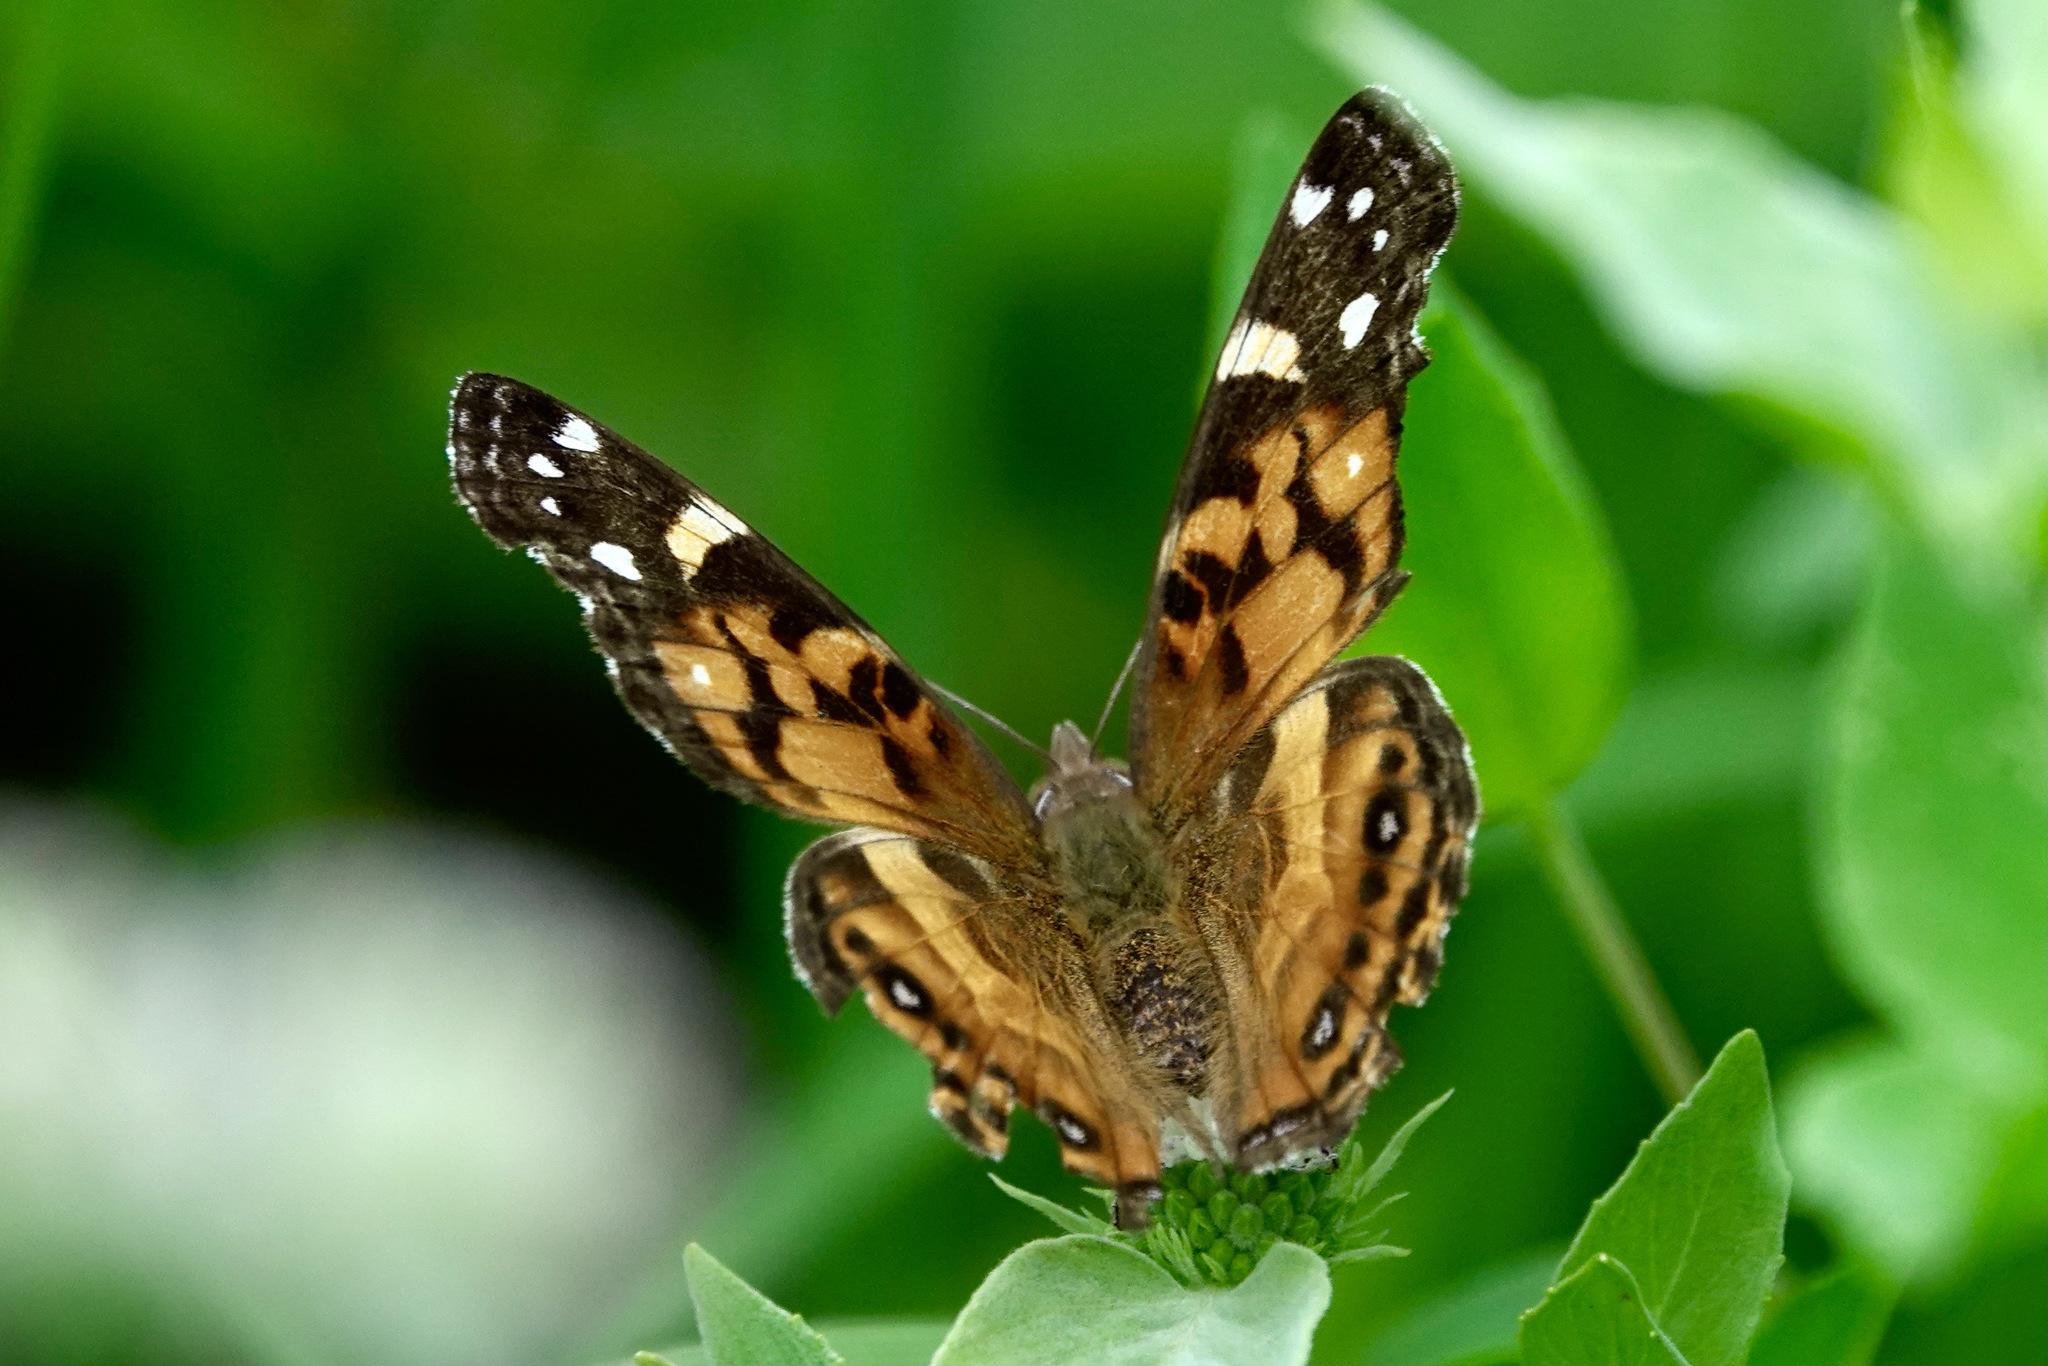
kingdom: Animalia
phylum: Arthropoda
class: Insecta
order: Lepidoptera
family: Nymphalidae
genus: Vanessa
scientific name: Vanessa virginiensis
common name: American lady
